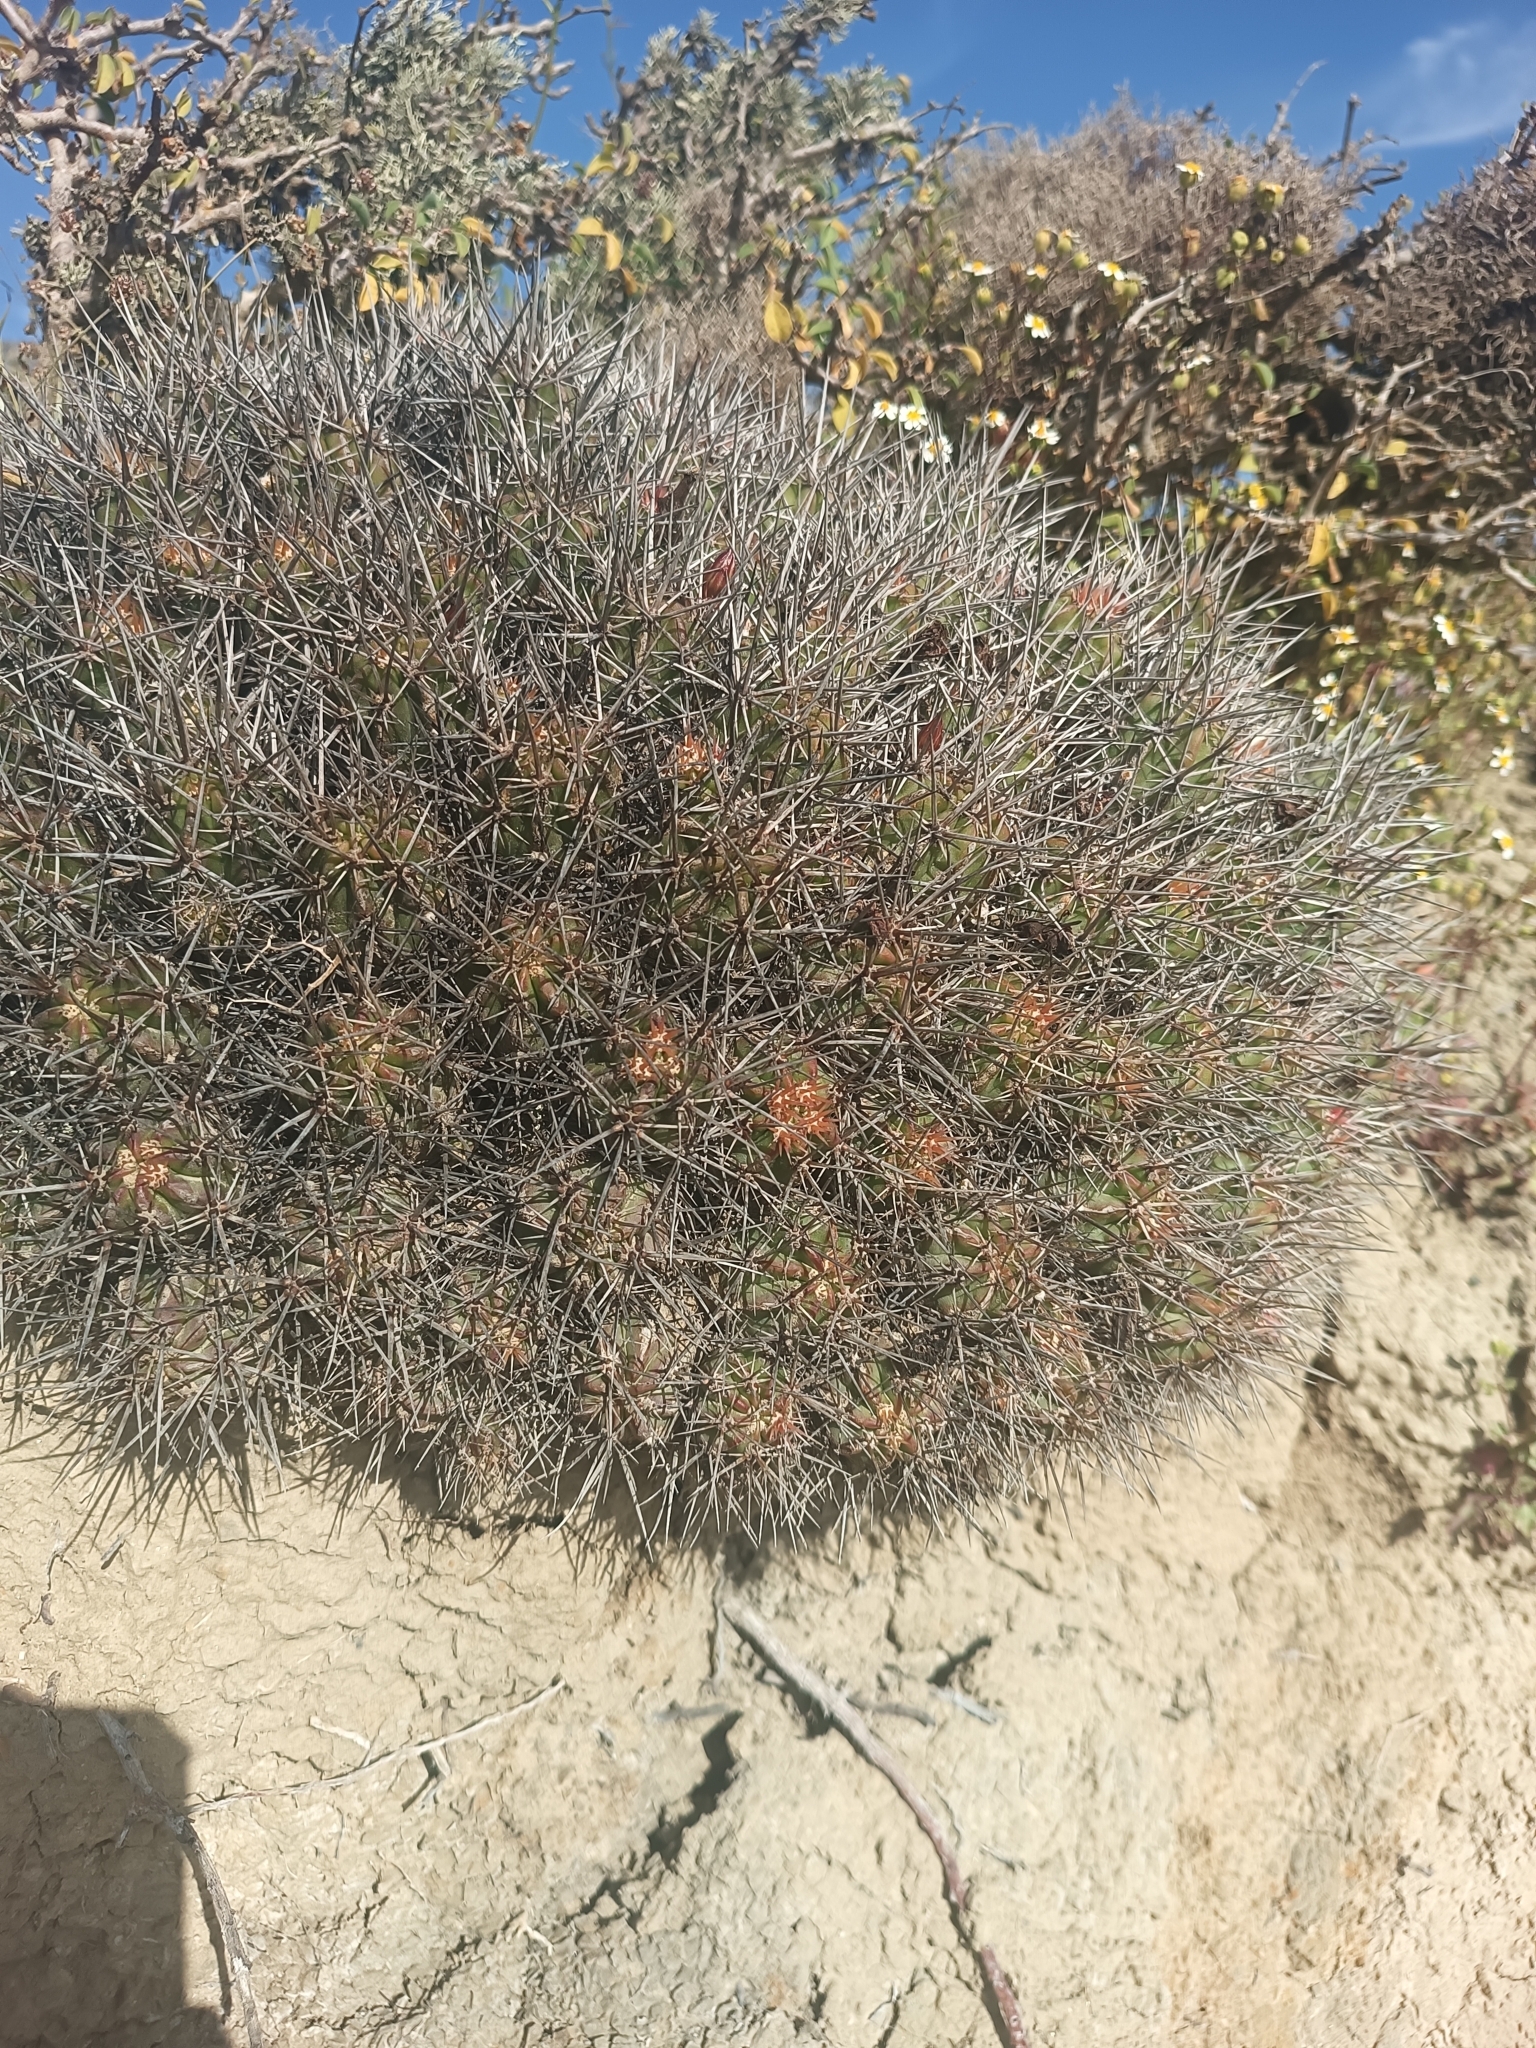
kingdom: Plantae
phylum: Tracheophyta
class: Magnoliopsida
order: Caryophyllales
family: Cactaceae
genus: Echinocereus
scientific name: Echinocereus maritimus
